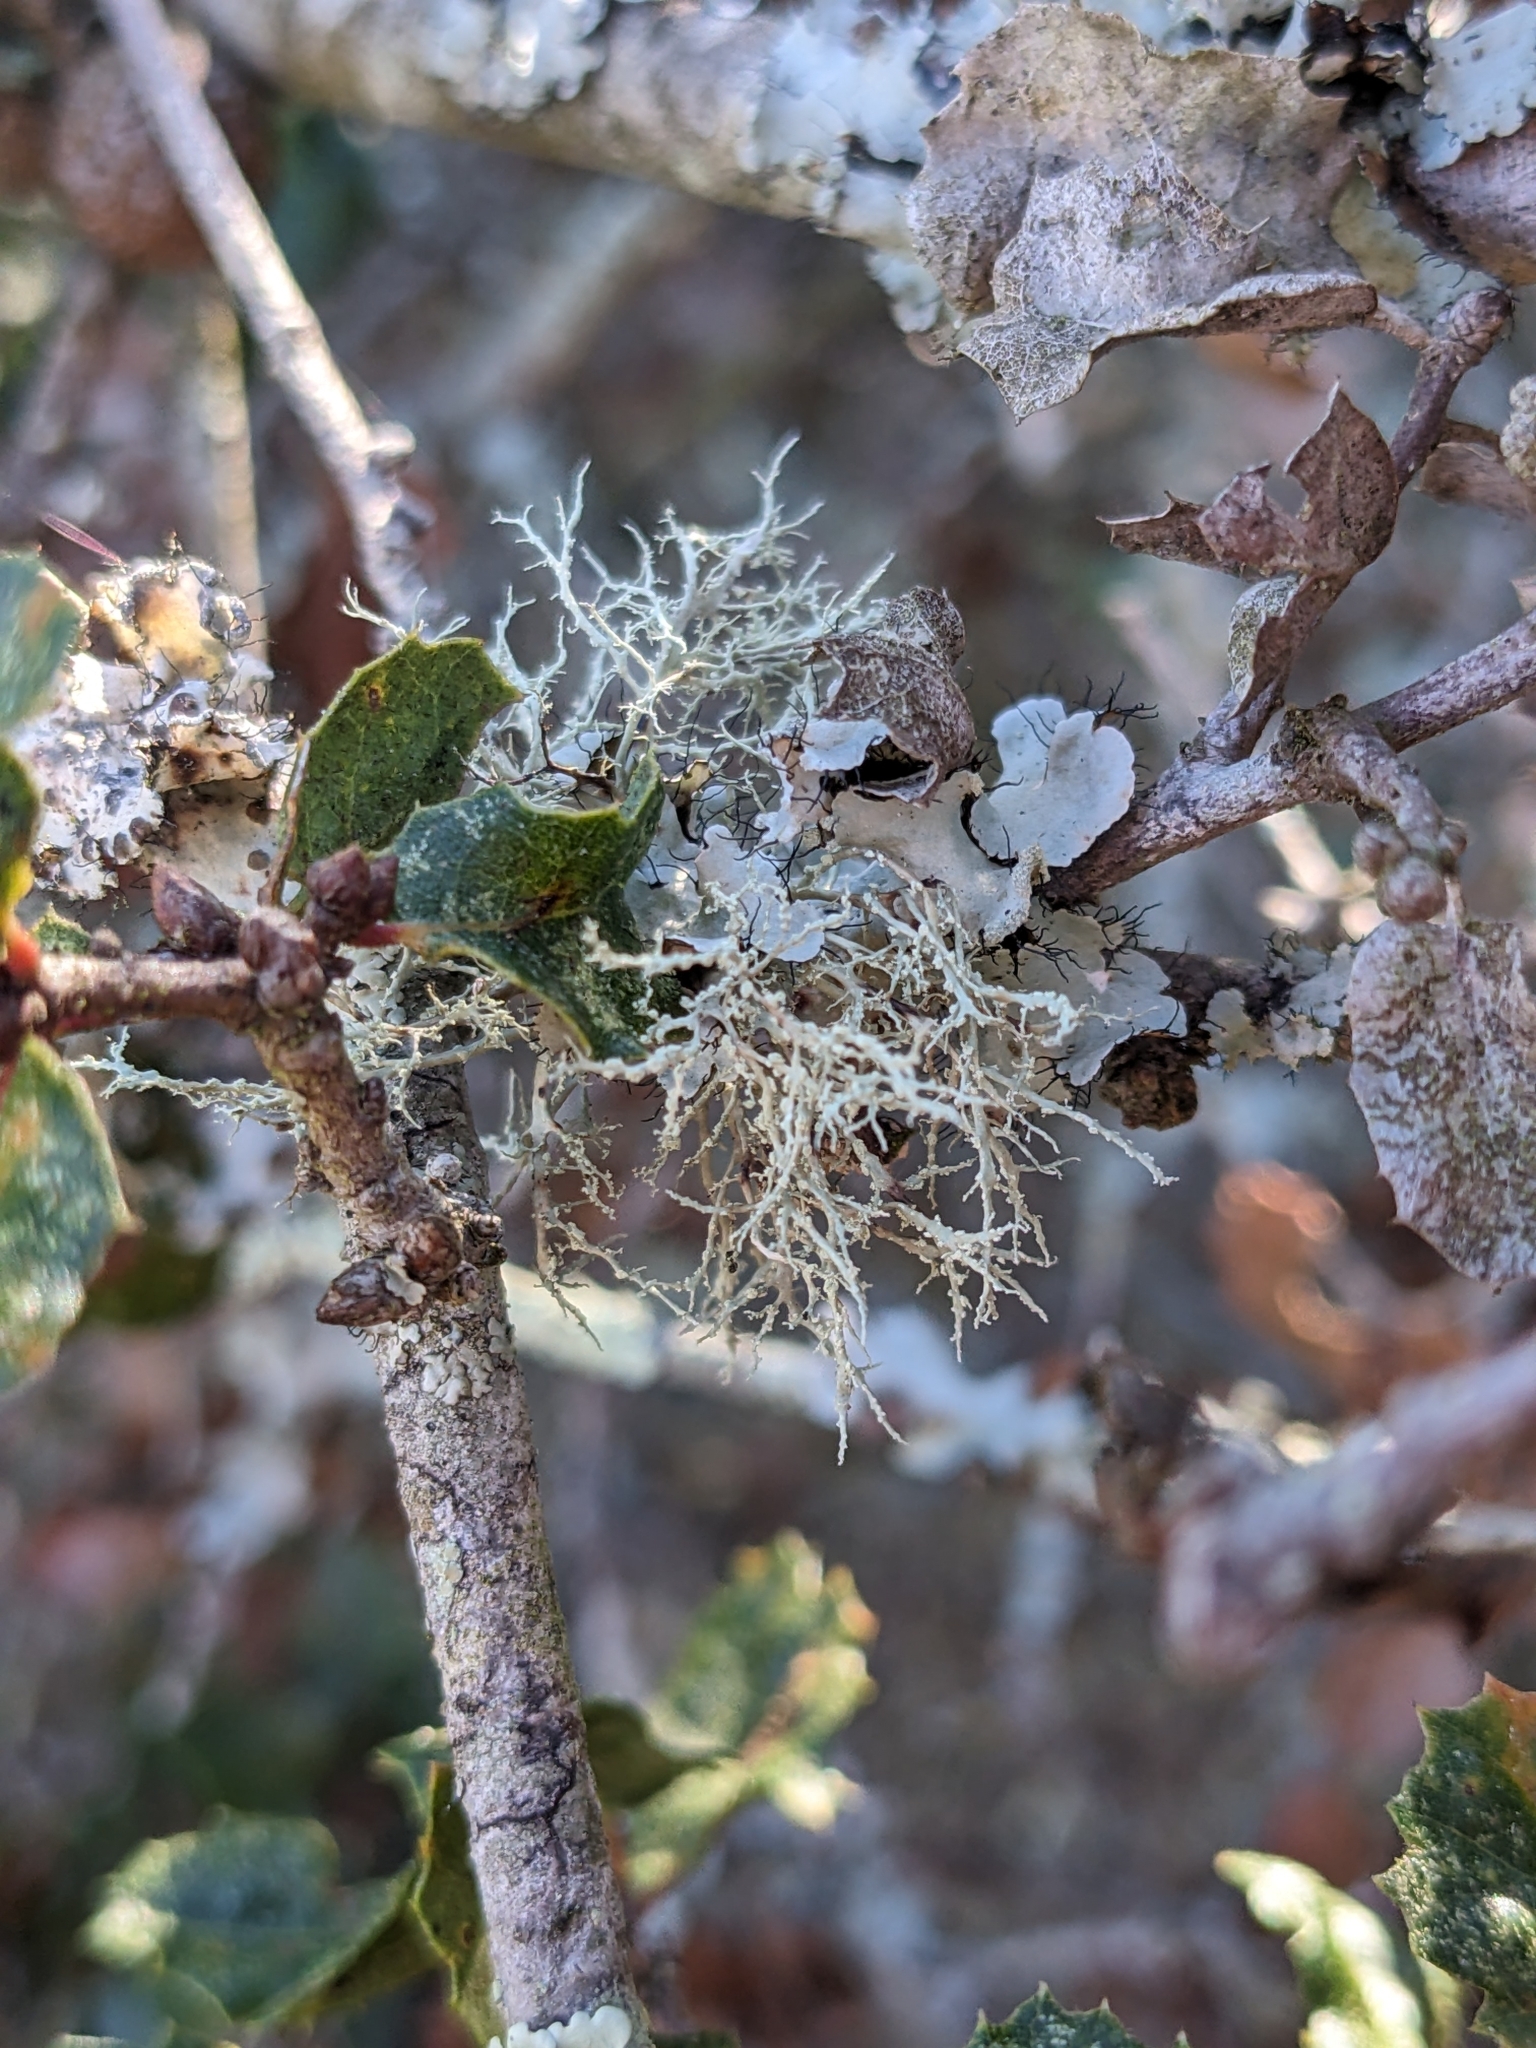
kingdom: Fungi
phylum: Ascomycota
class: Lecanoromycetes
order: Lecanorales
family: Ramalinaceae
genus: Ramalina
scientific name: Ramalina intermedia
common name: Rock bushy lichen
